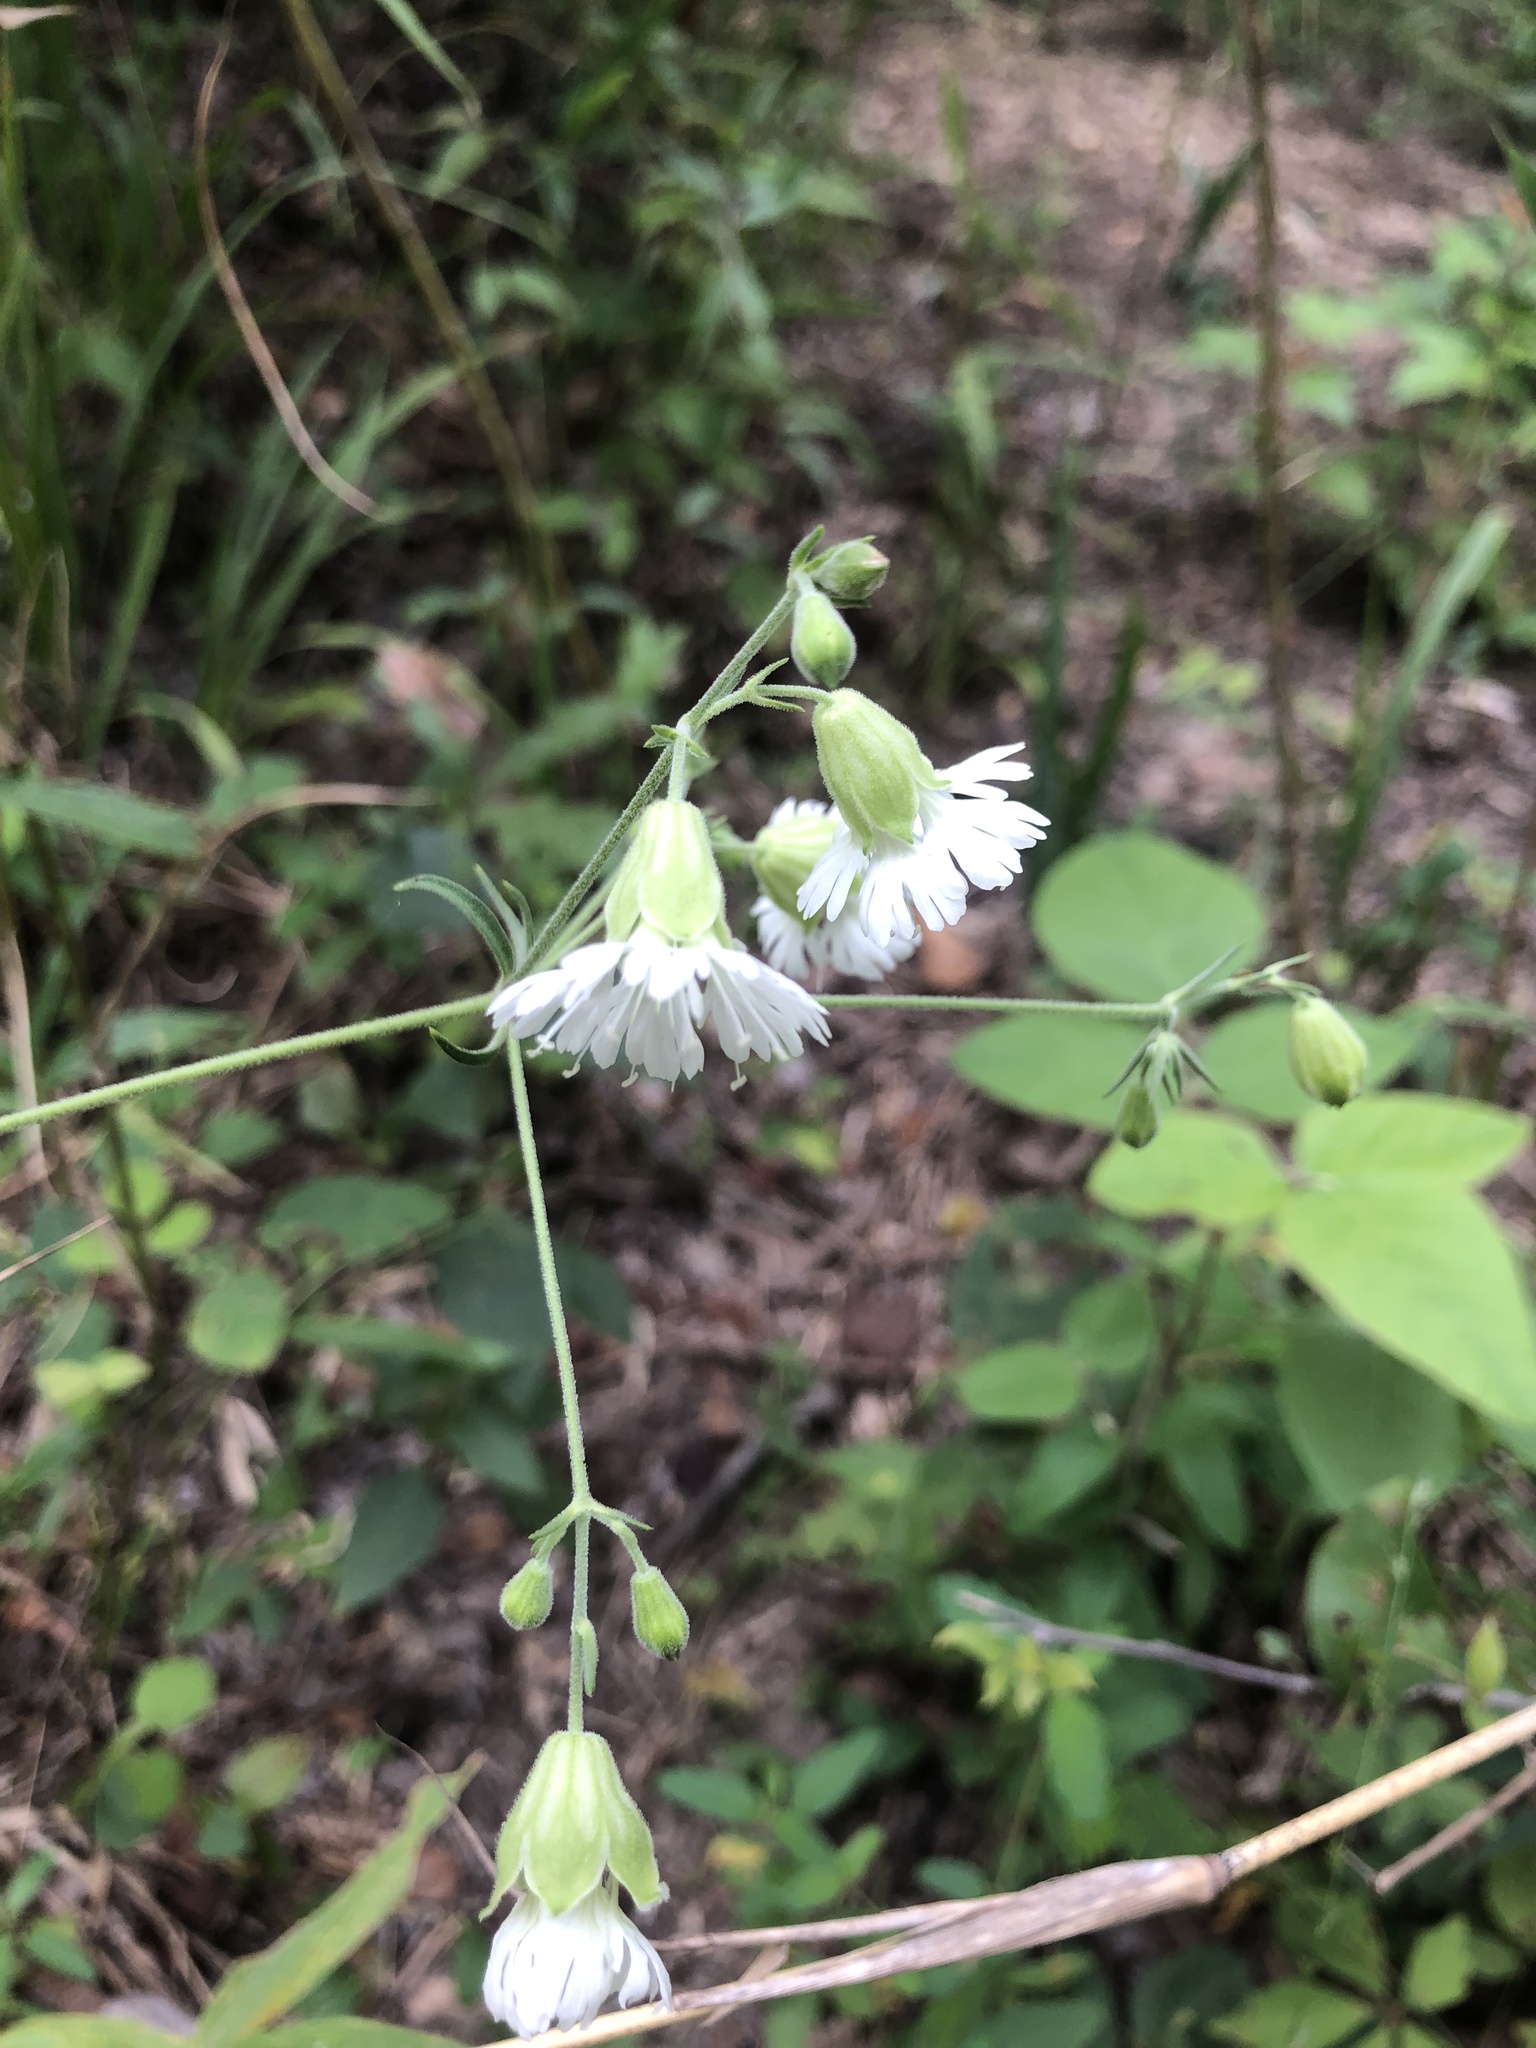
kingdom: Plantae
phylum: Tracheophyta
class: Magnoliopsida
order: Caryophyllales
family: Caryophyllaceae
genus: Silene
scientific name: Silene stellata
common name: Starry campion
